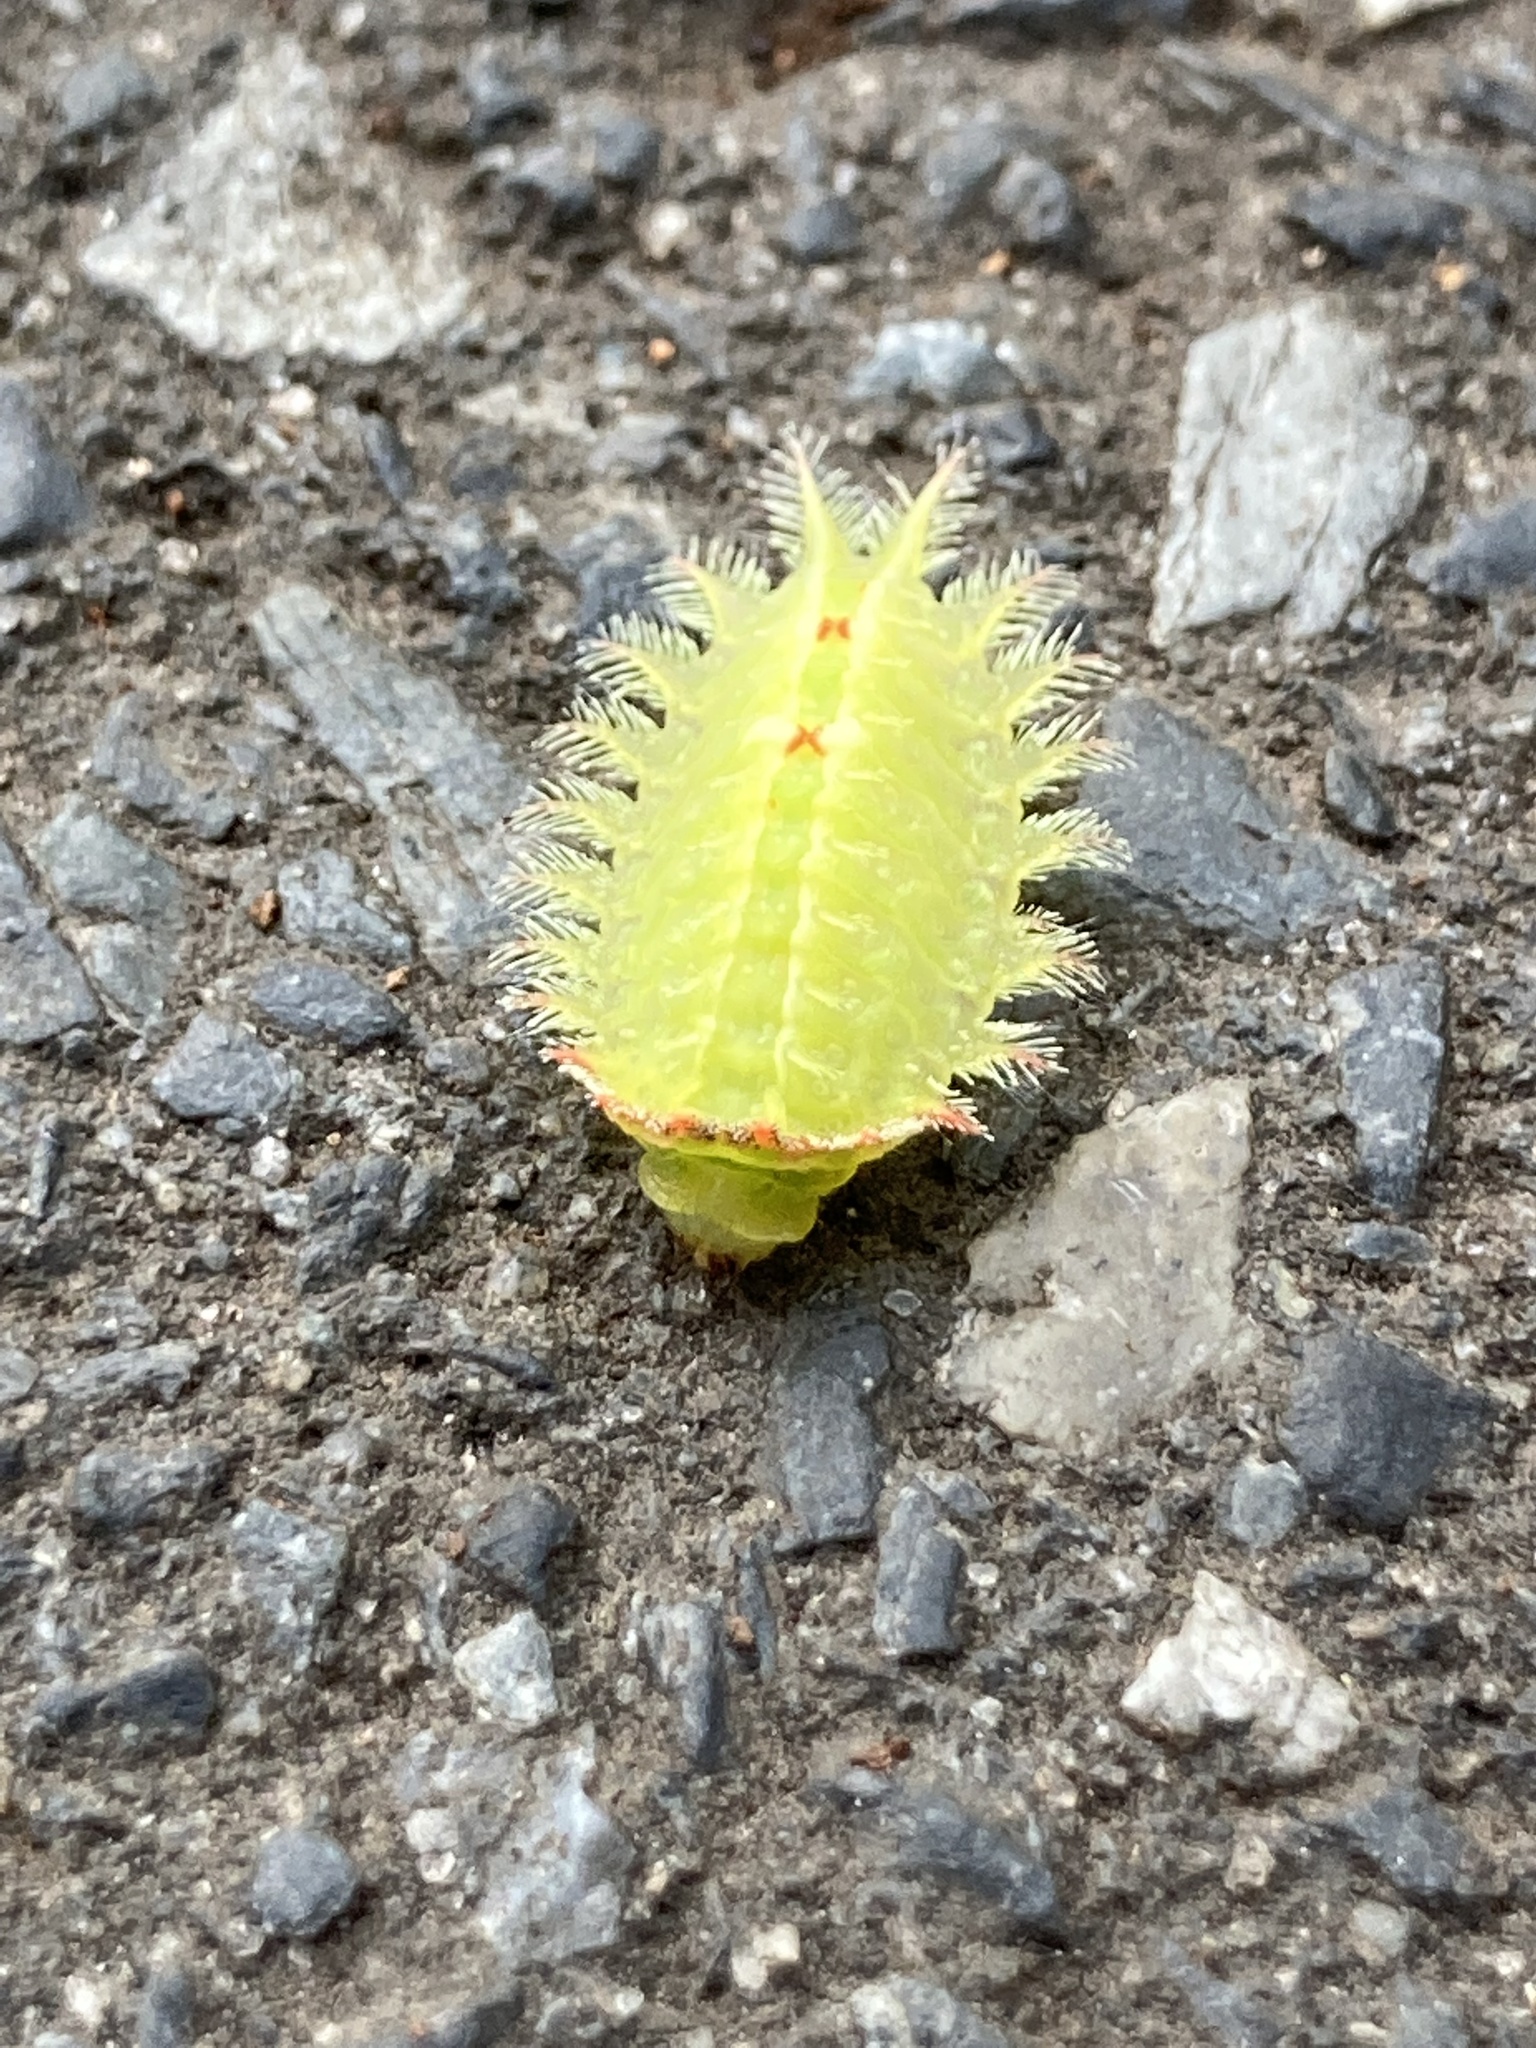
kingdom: Animalia
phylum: Arthropoda
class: Insecta
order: Lepidoptera
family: Limacodidae
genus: Isa
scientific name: Isa textula
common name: Crowned slug moth
